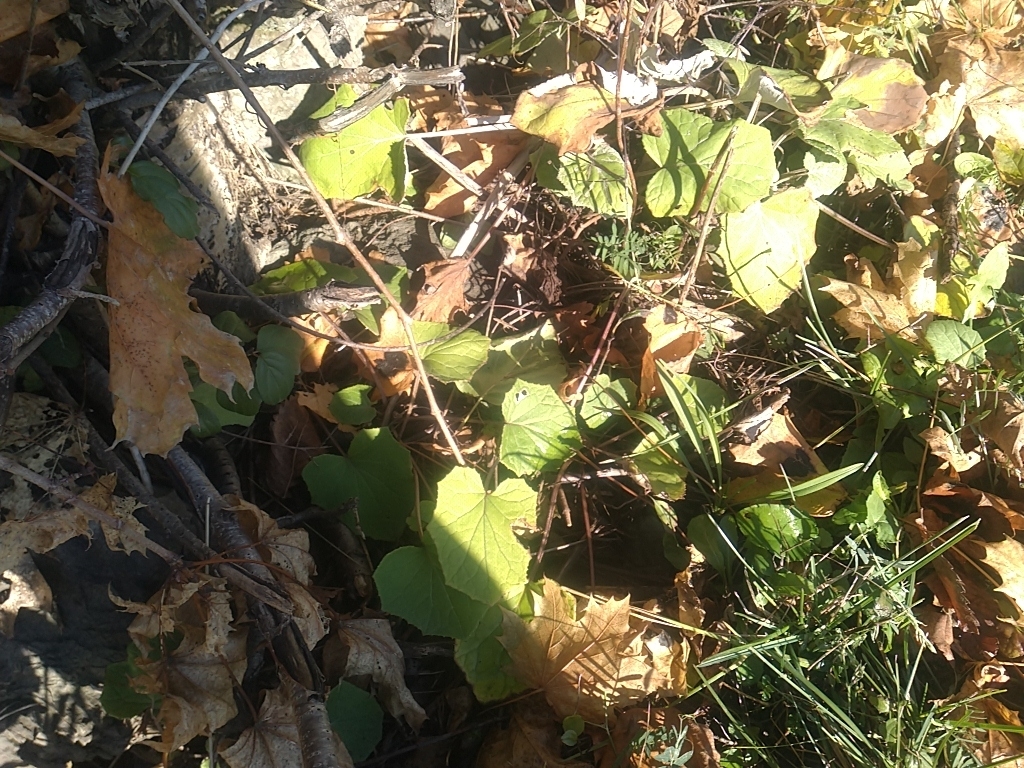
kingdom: Plantae
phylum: Tracheophyta
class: Magnoliopsida
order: Asterales
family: Asteraceae
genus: Tussilago
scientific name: Tussilago farfara
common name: Coltsfoot
